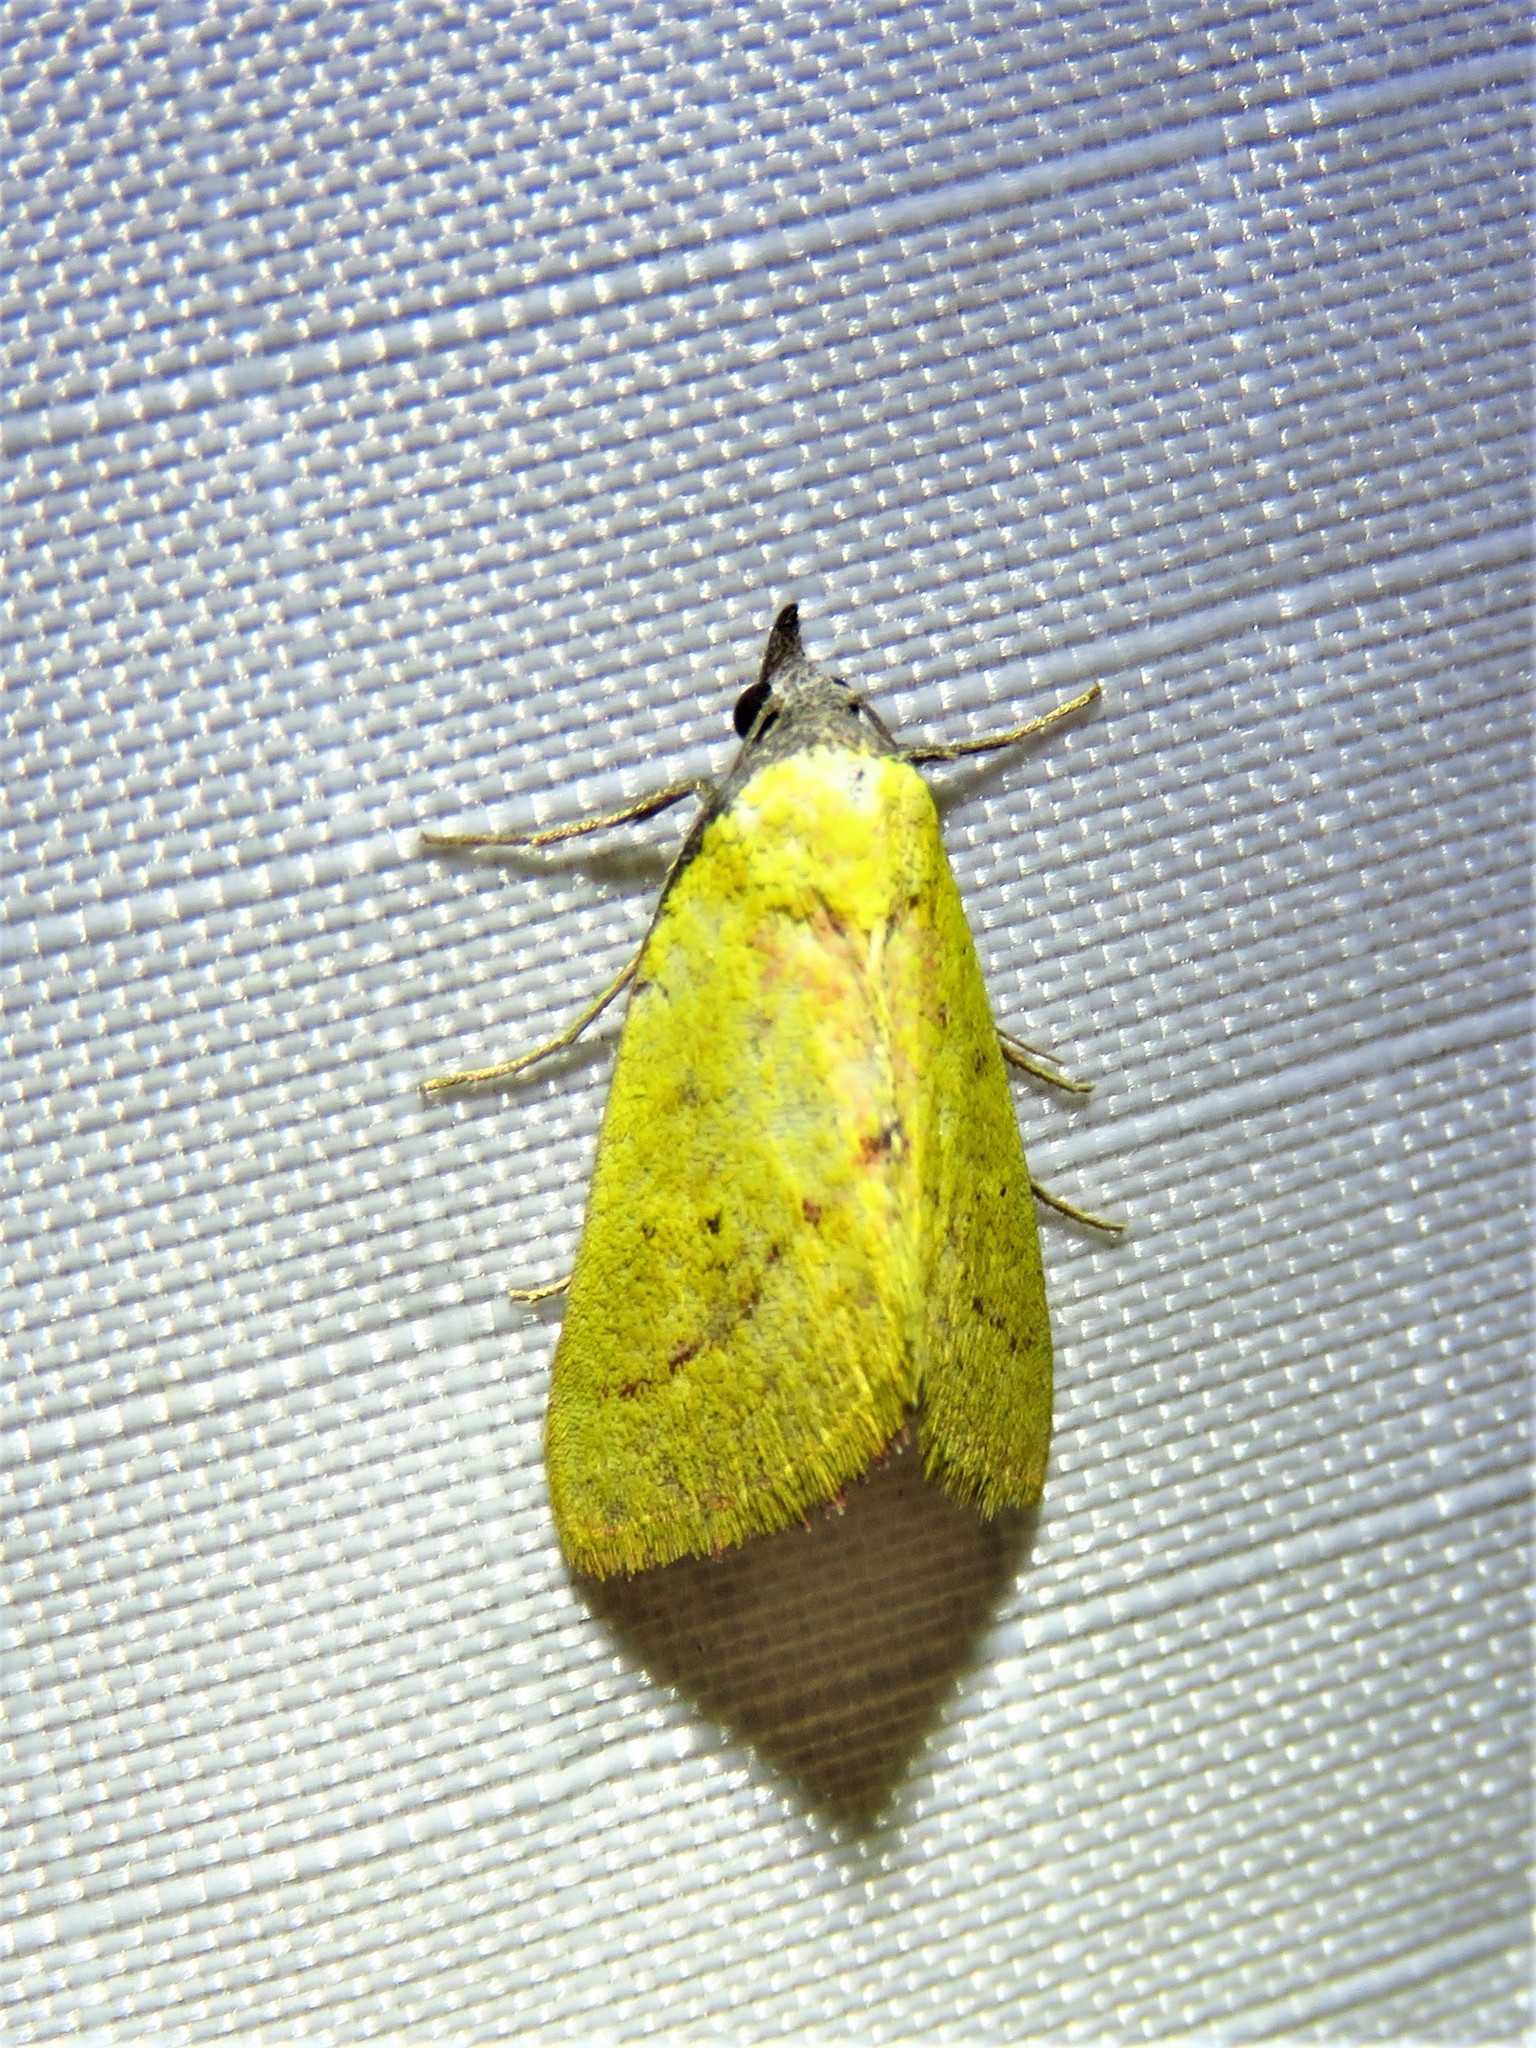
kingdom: Animalia
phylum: Arthropoda
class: Insecta
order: Lepidoptera
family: Erebidae
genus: Phytometra
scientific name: Phytometra orgiae
